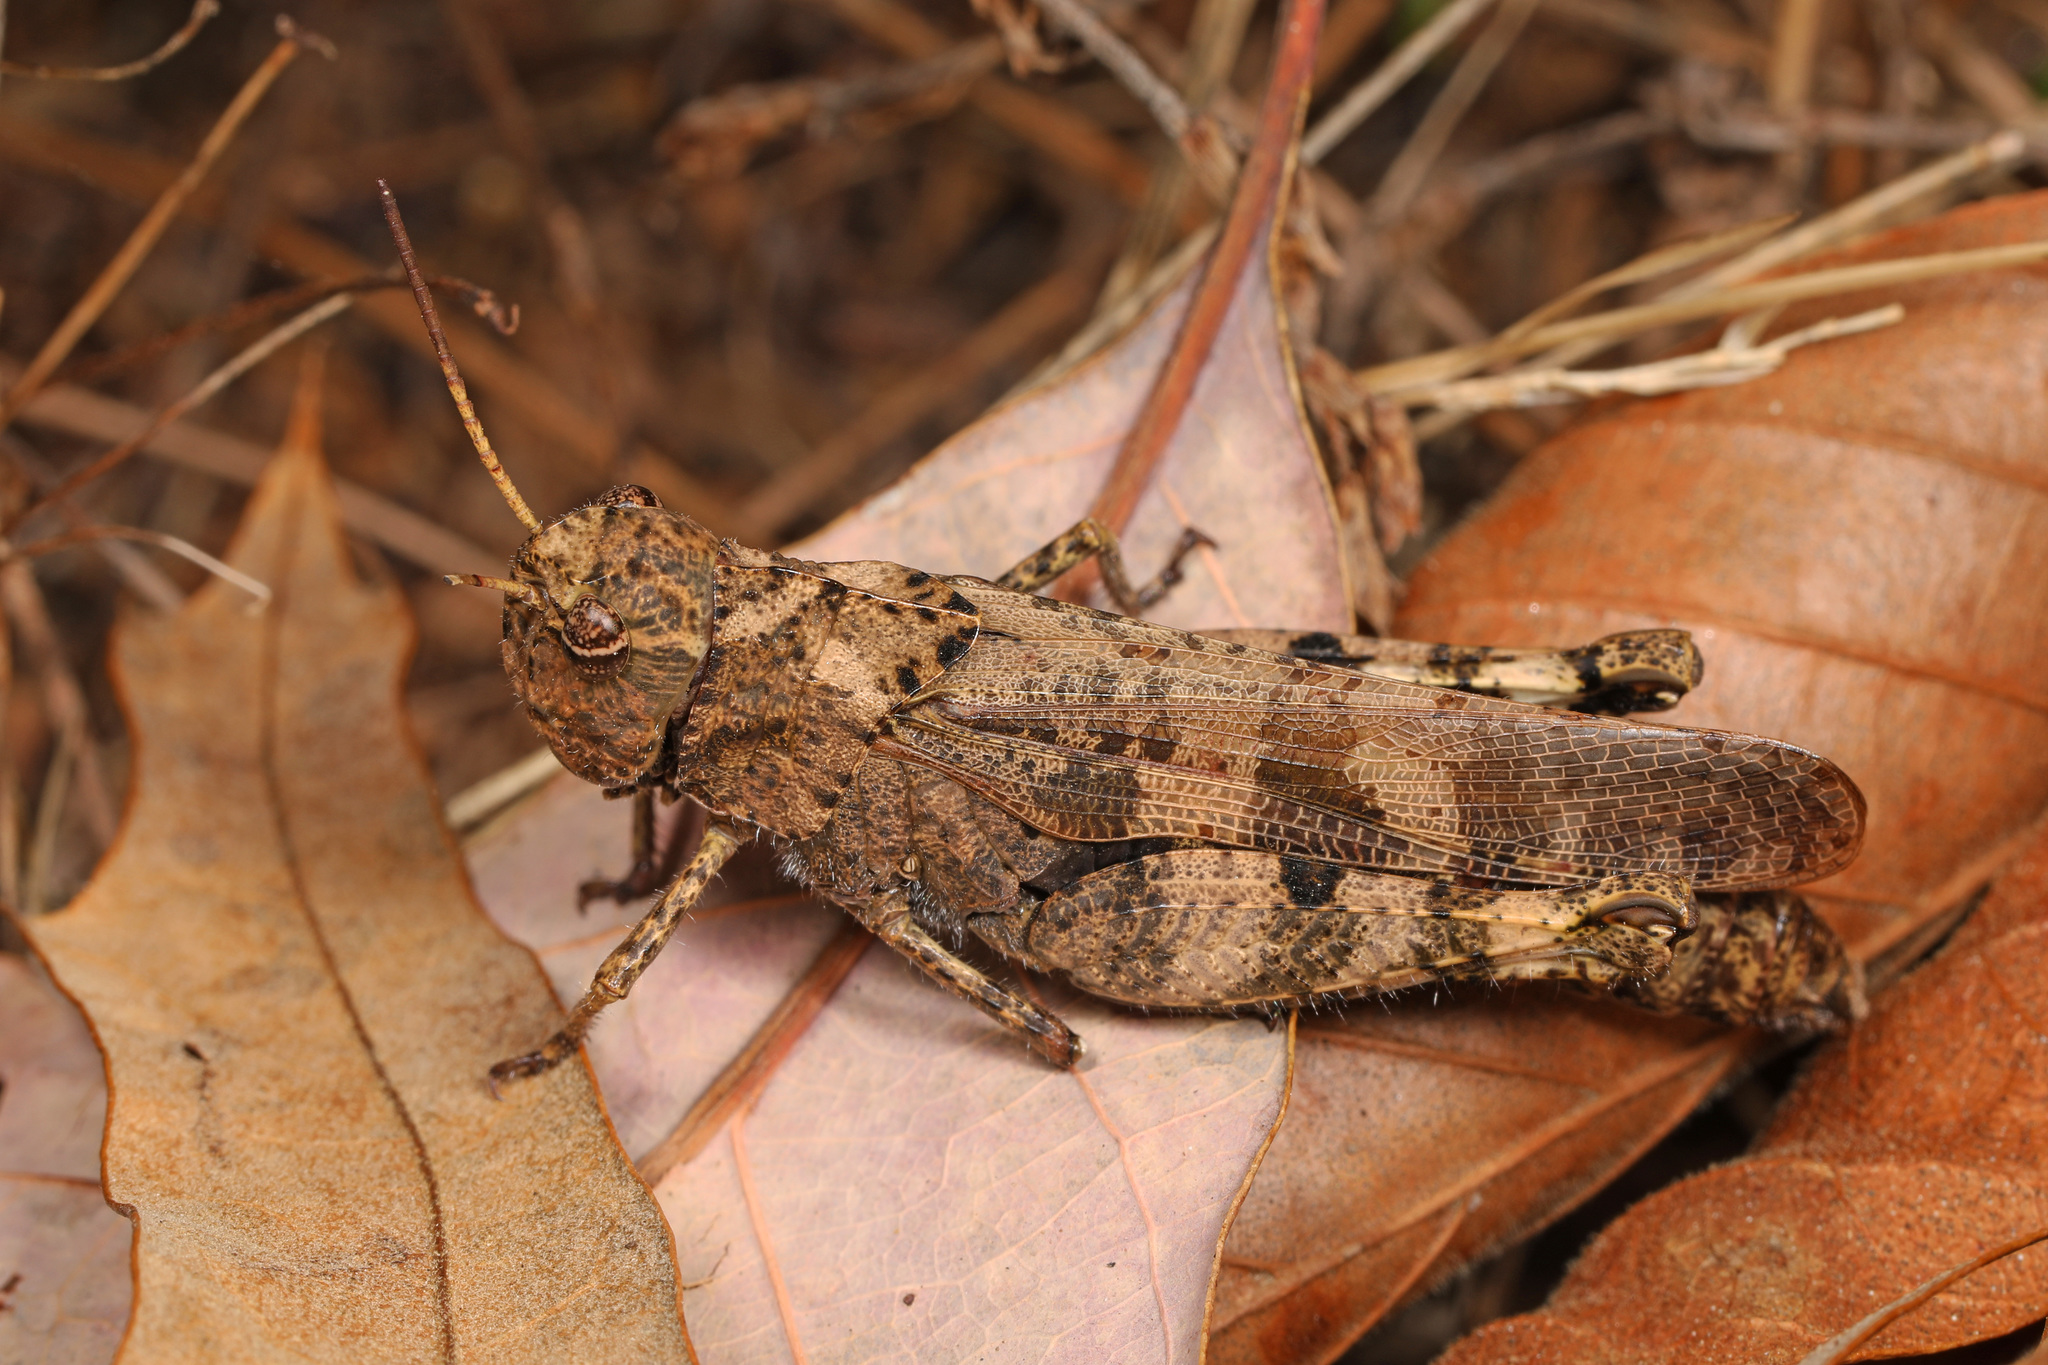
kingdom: Animalia
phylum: Arthropoda
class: Insecta
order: Orthoptera
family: Acrididae
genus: Encoptolophus
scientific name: Encoptolophus sordidus
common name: Dusky grasshopper
